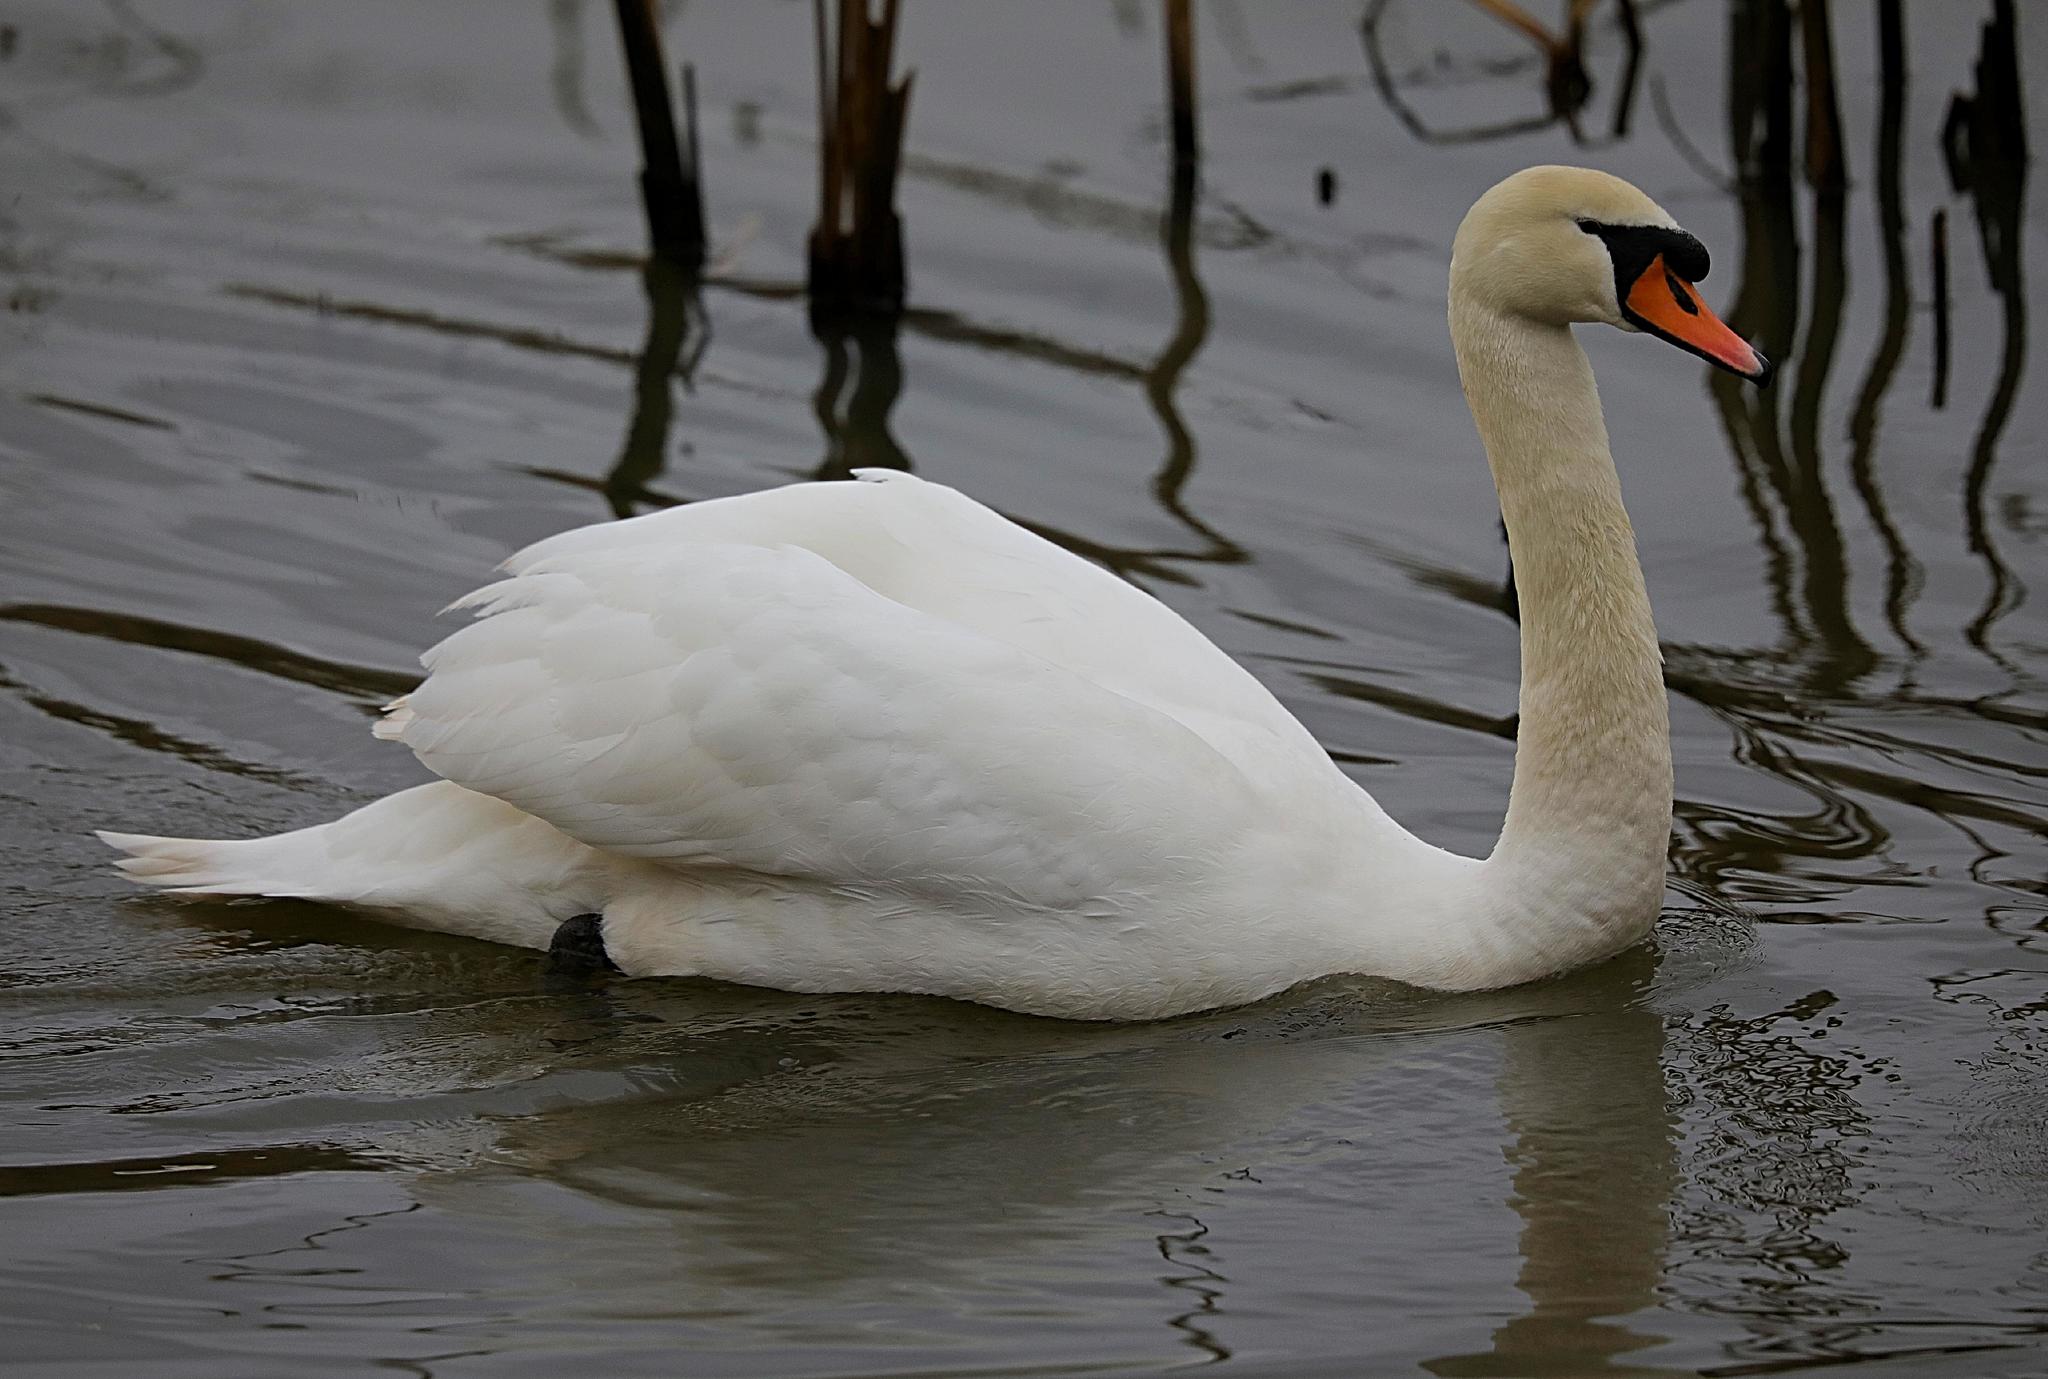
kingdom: Animalia
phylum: Chordata
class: Aves
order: Anseriformes
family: Anatidae
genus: Cygnus
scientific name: Cygnus olor
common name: Mute swan
